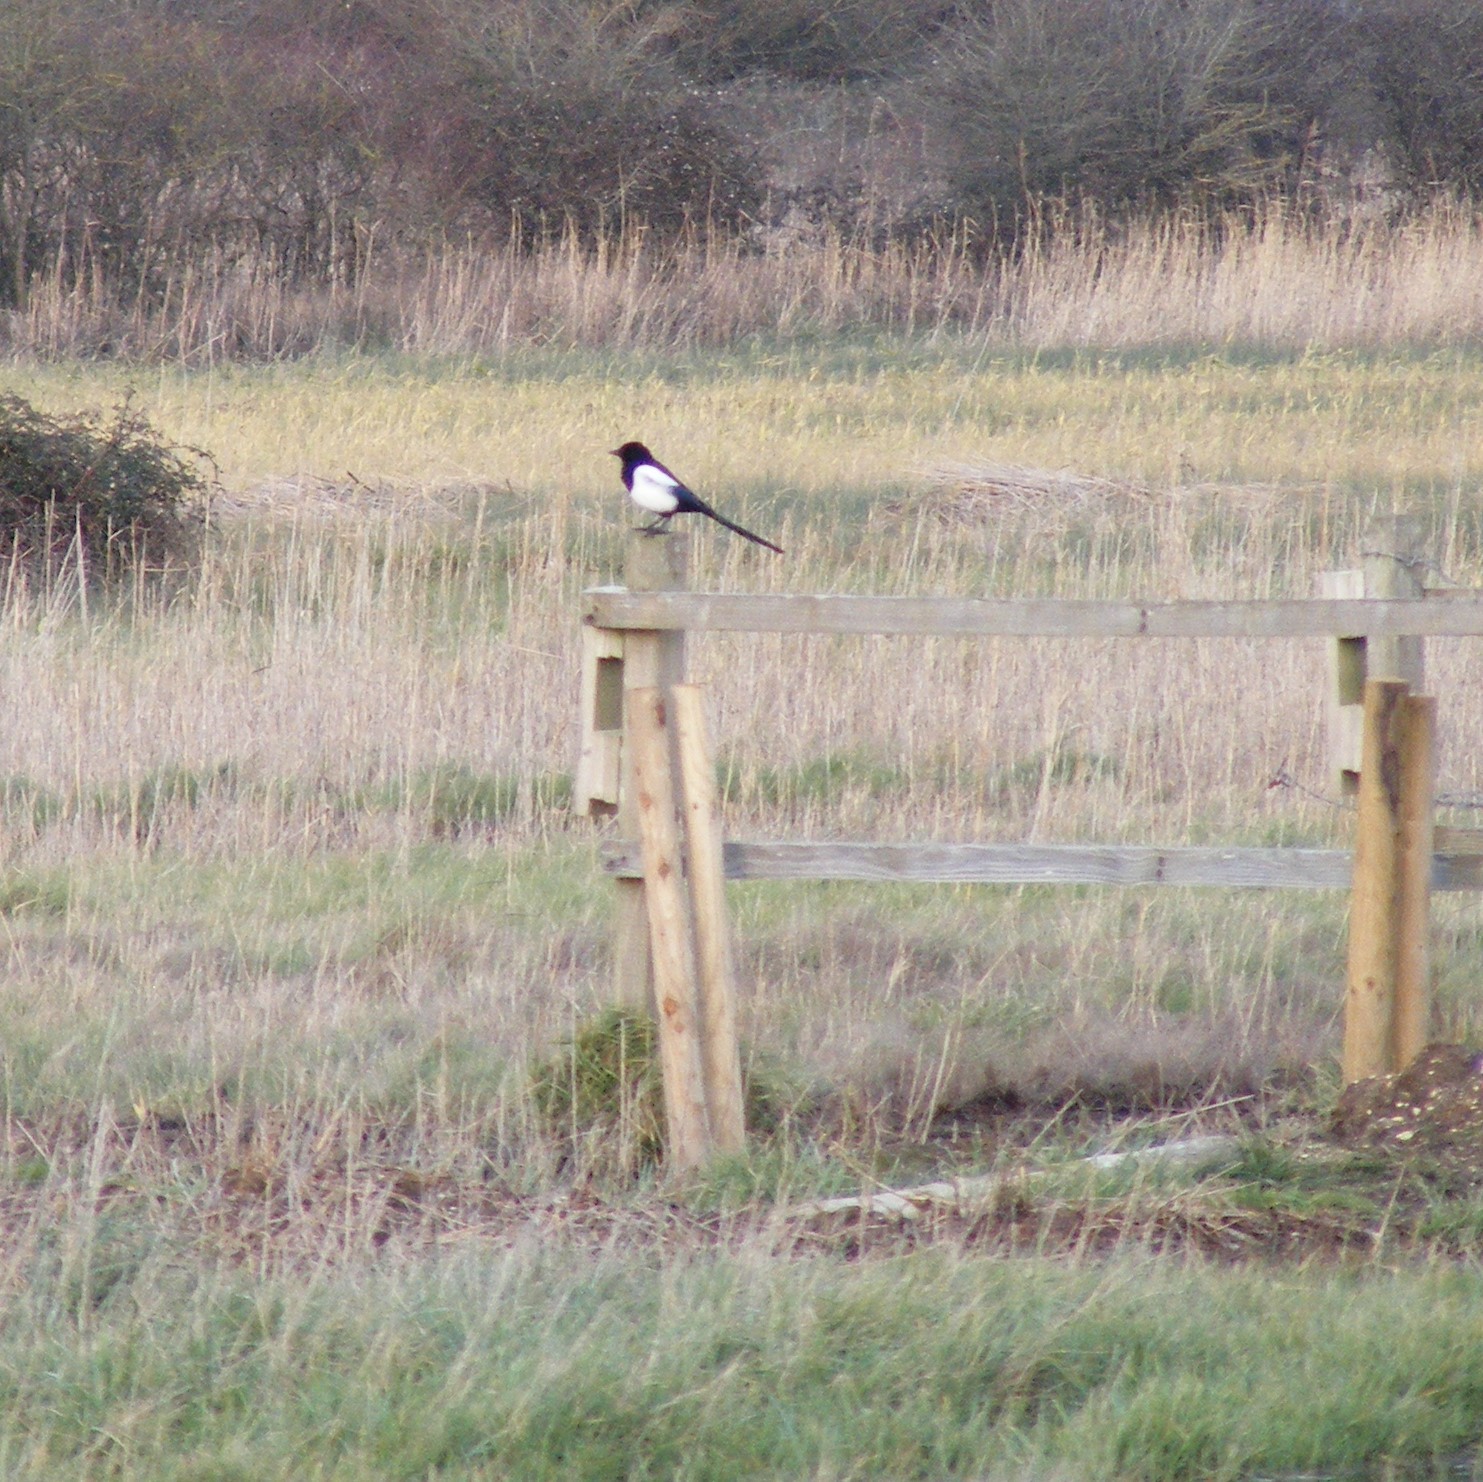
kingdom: Animalia
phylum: Chordata
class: Aves
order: Passeriformes
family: Corvidae
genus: Pica
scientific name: Pica pica
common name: Eurasian magpie
